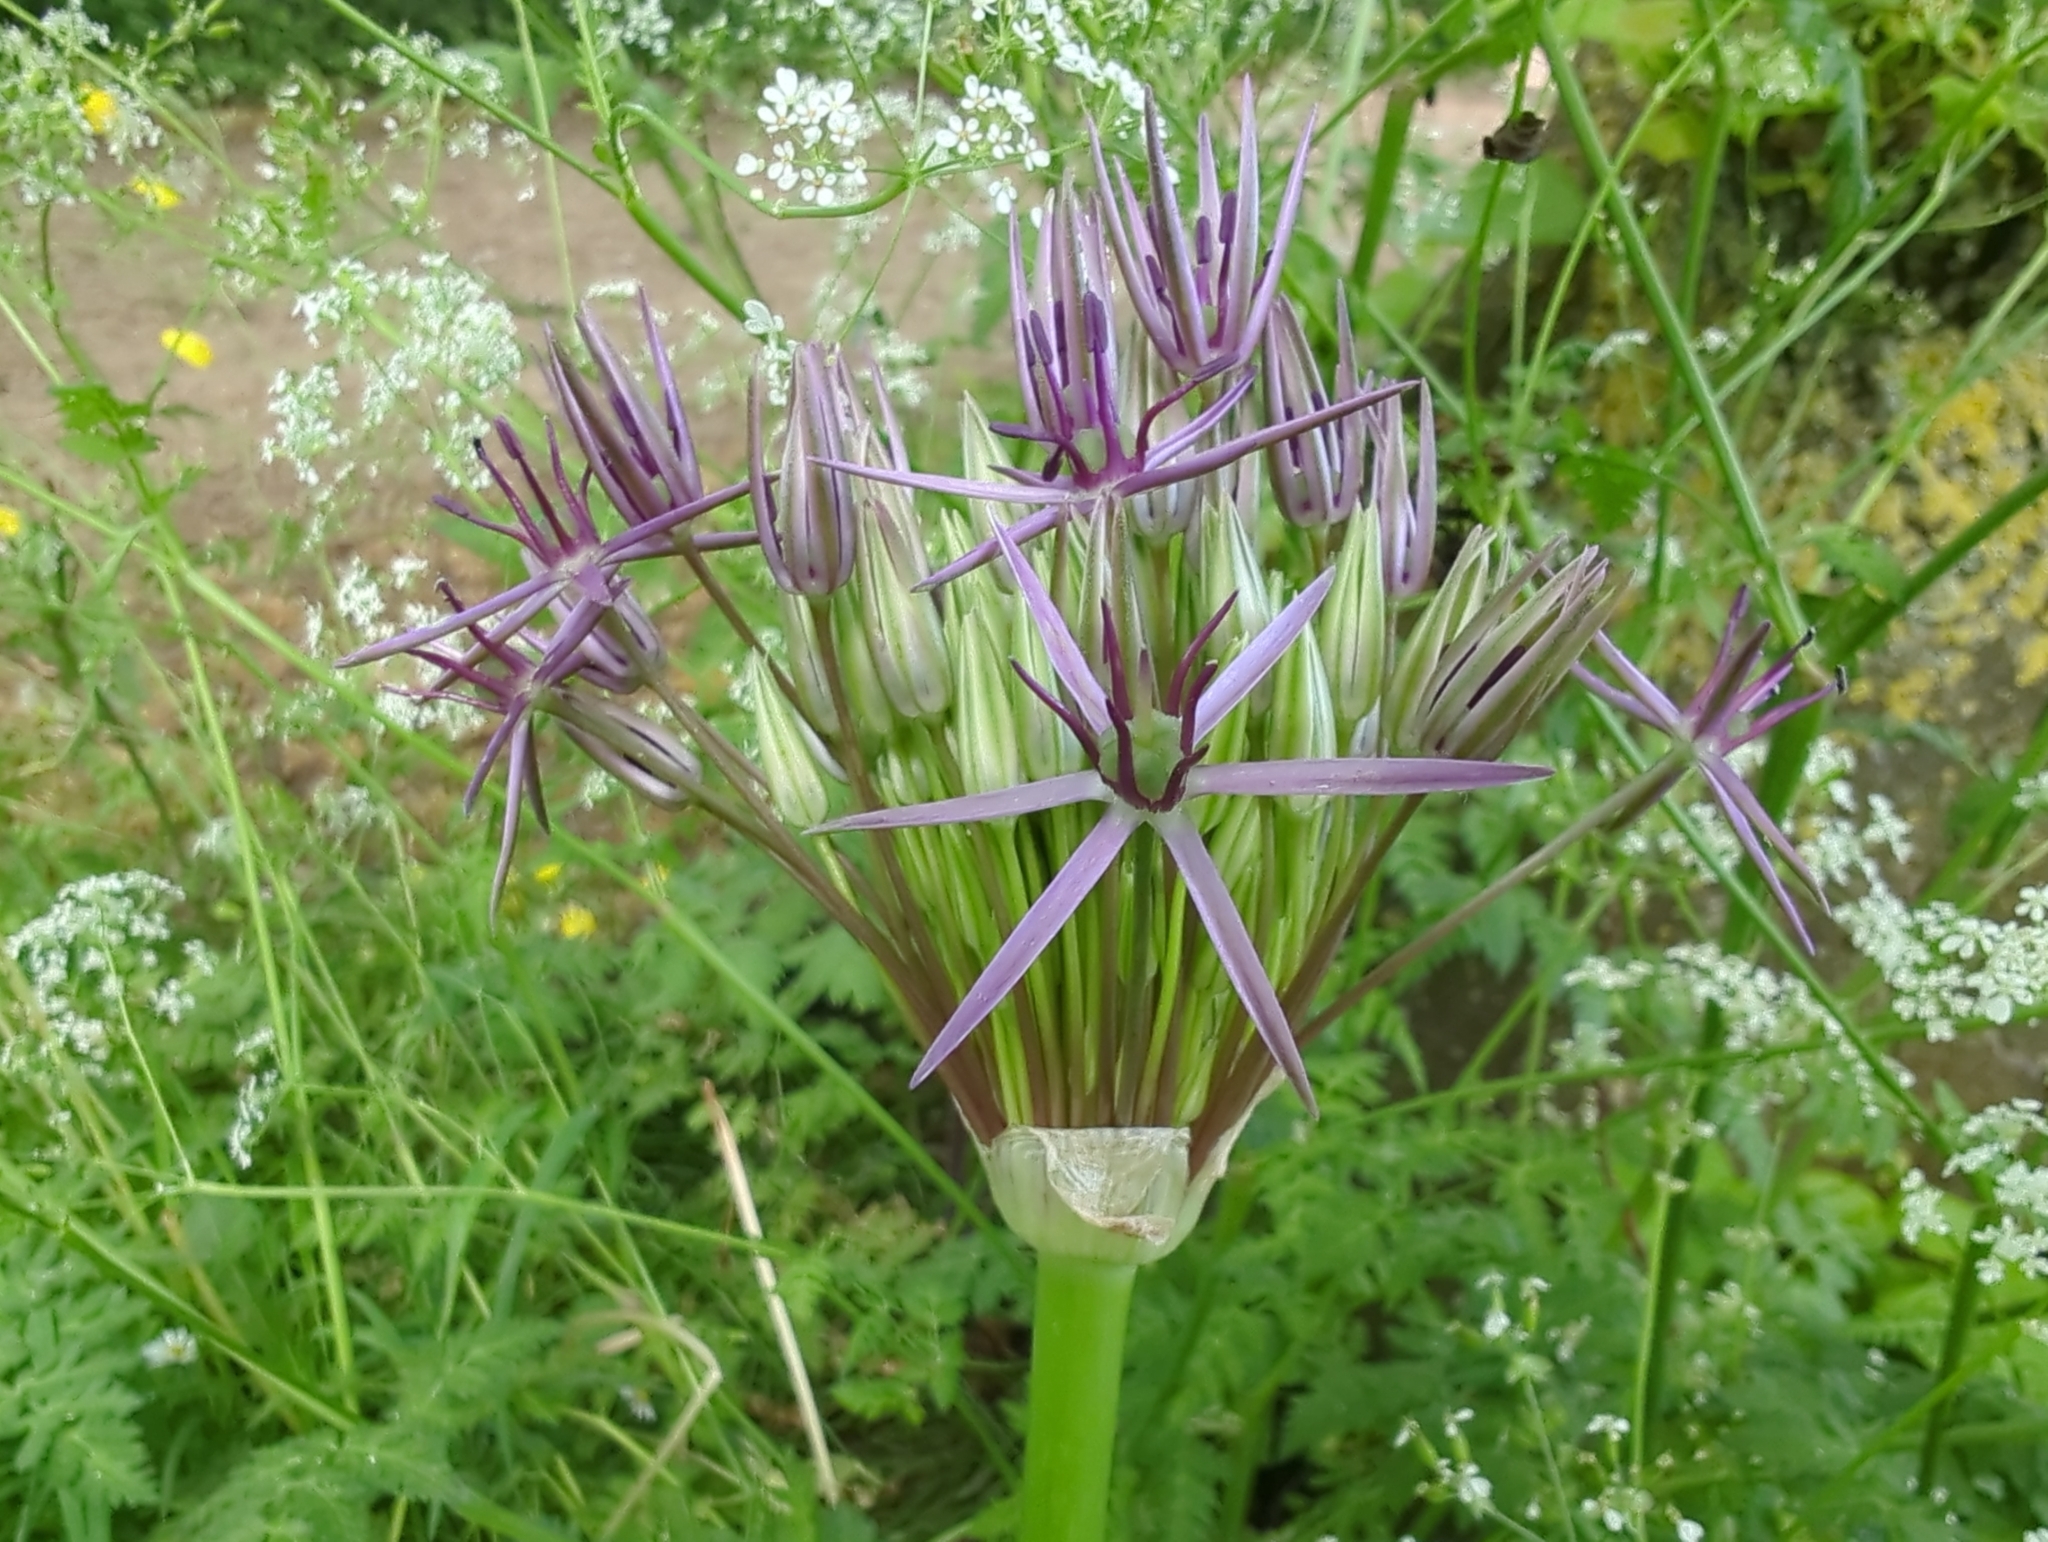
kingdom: Plantae
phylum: Tracheophyta
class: Liliopsida
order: Asparagales
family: Amaryllidaceae
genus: Allium
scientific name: Allium cristophii
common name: Persian onion
